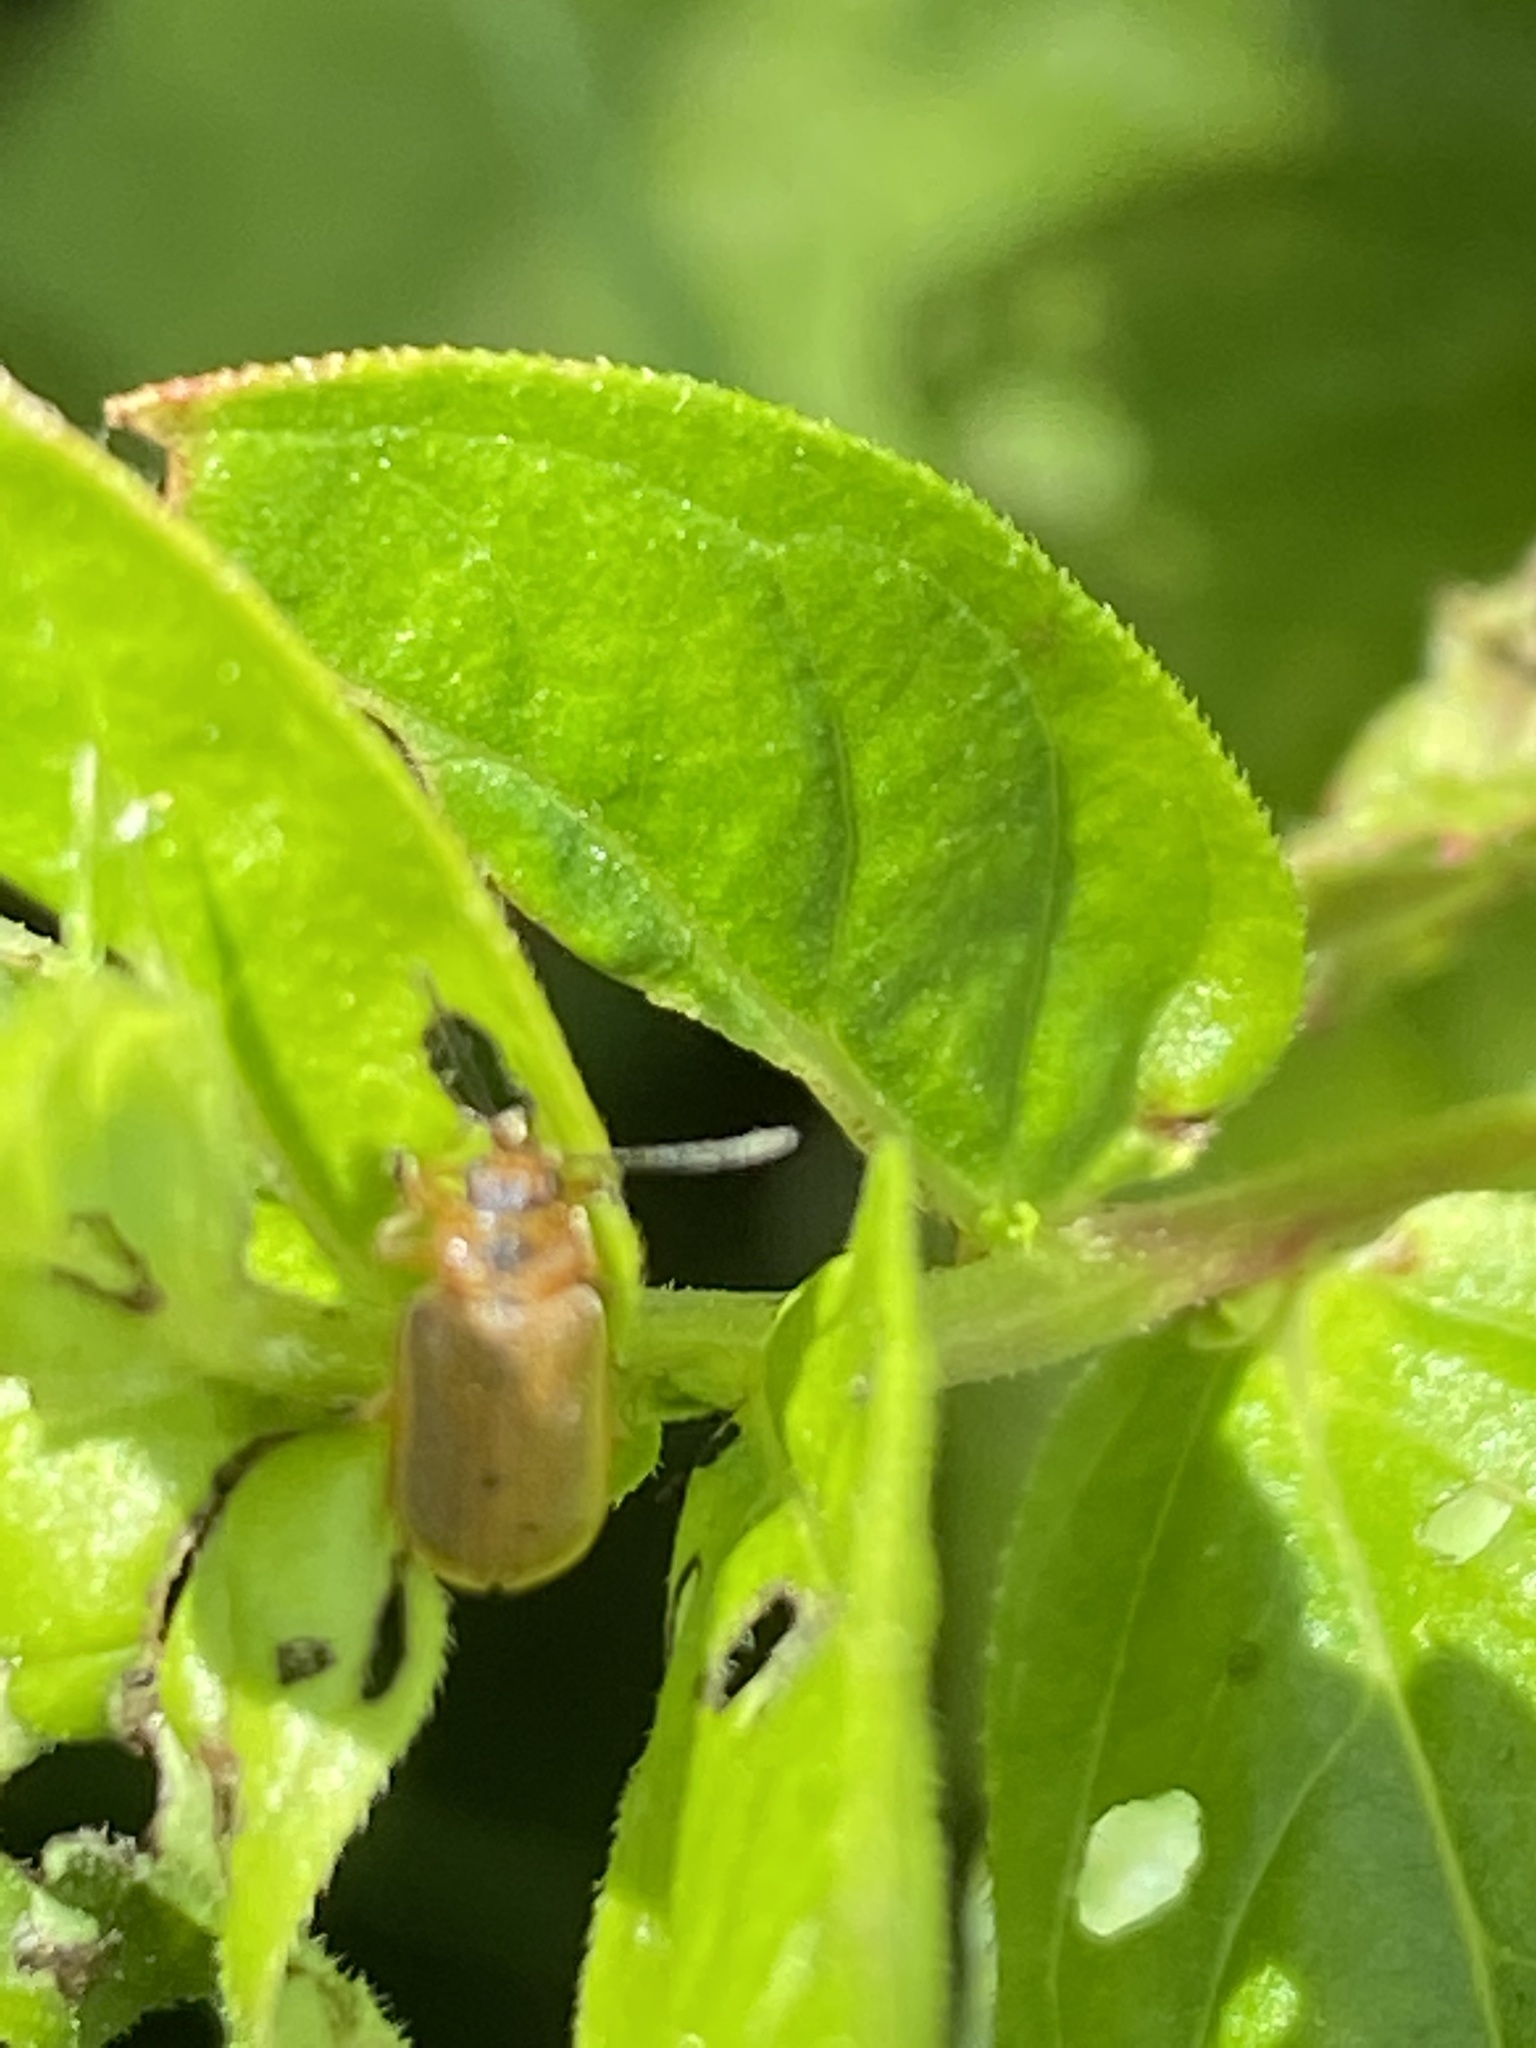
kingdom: Animalia
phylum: Arthropoda
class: Insecta
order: Coleoptera
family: Chrysomelidae
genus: Galerucella
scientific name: Galerucella lineola
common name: Brown willow beetle
